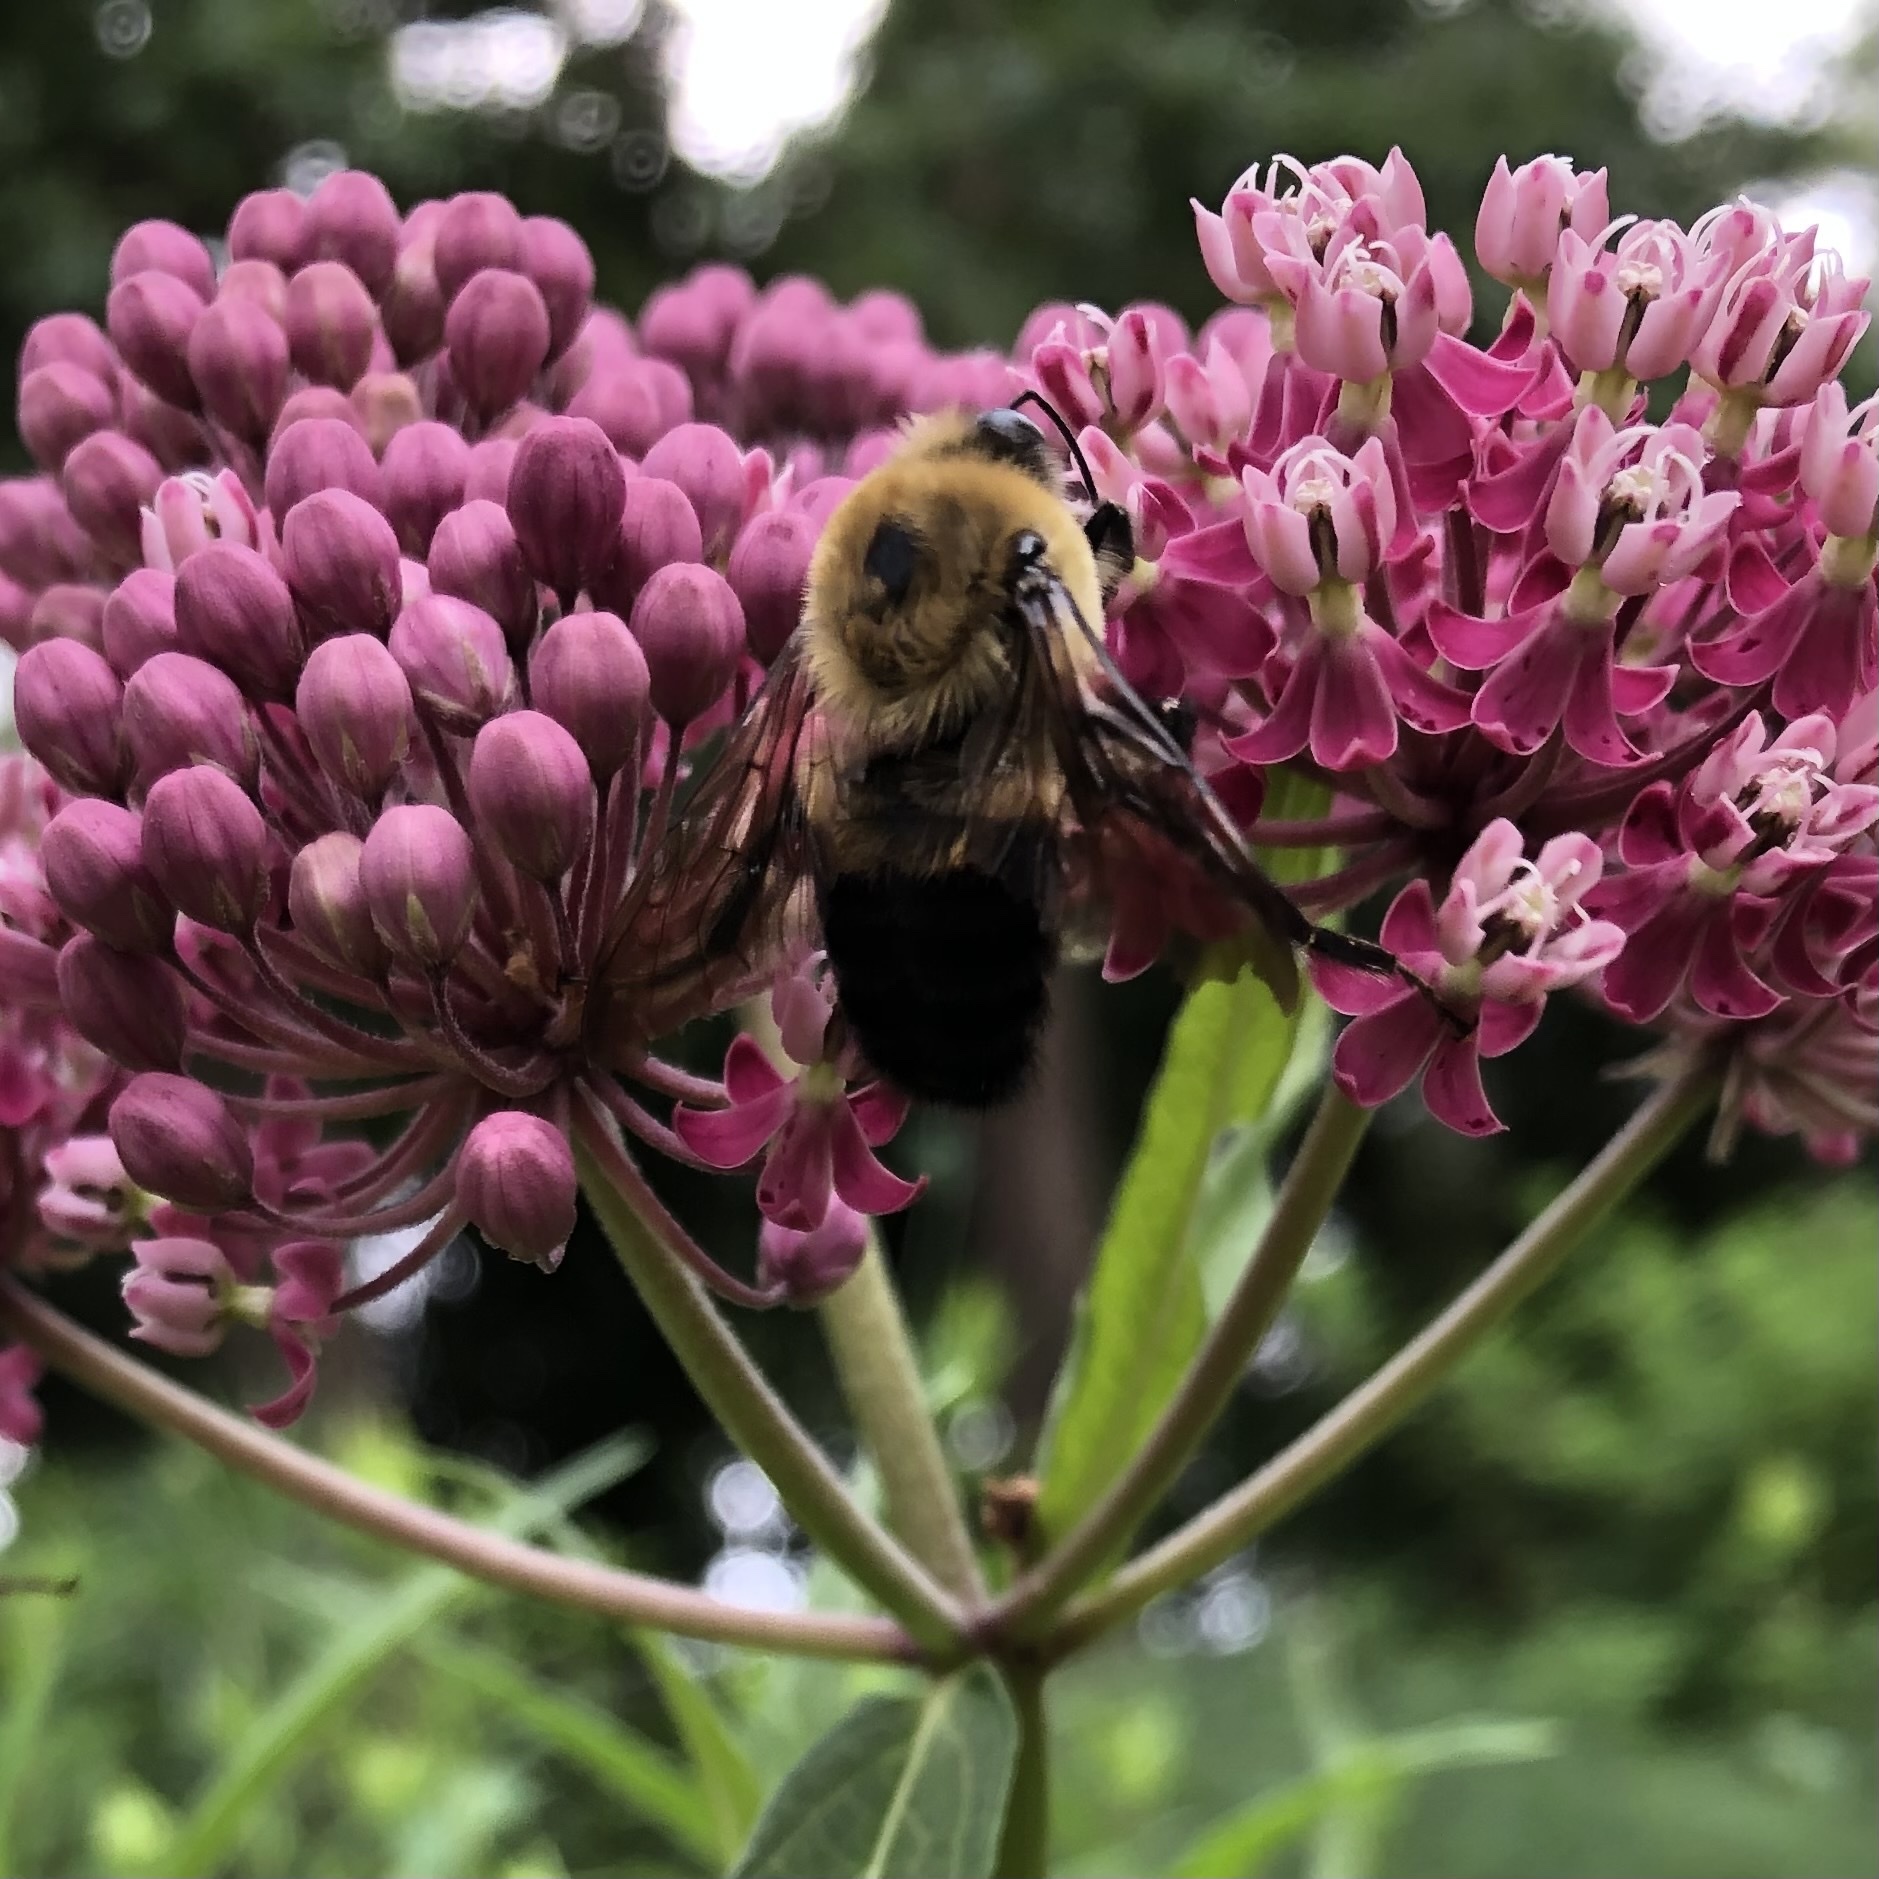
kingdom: Animalia
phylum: Arthropoda
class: Insecta
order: Hymenoptera
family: Apidae
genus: Bombus
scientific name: Bombus griseocollis
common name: Brown-belted bumble bee
